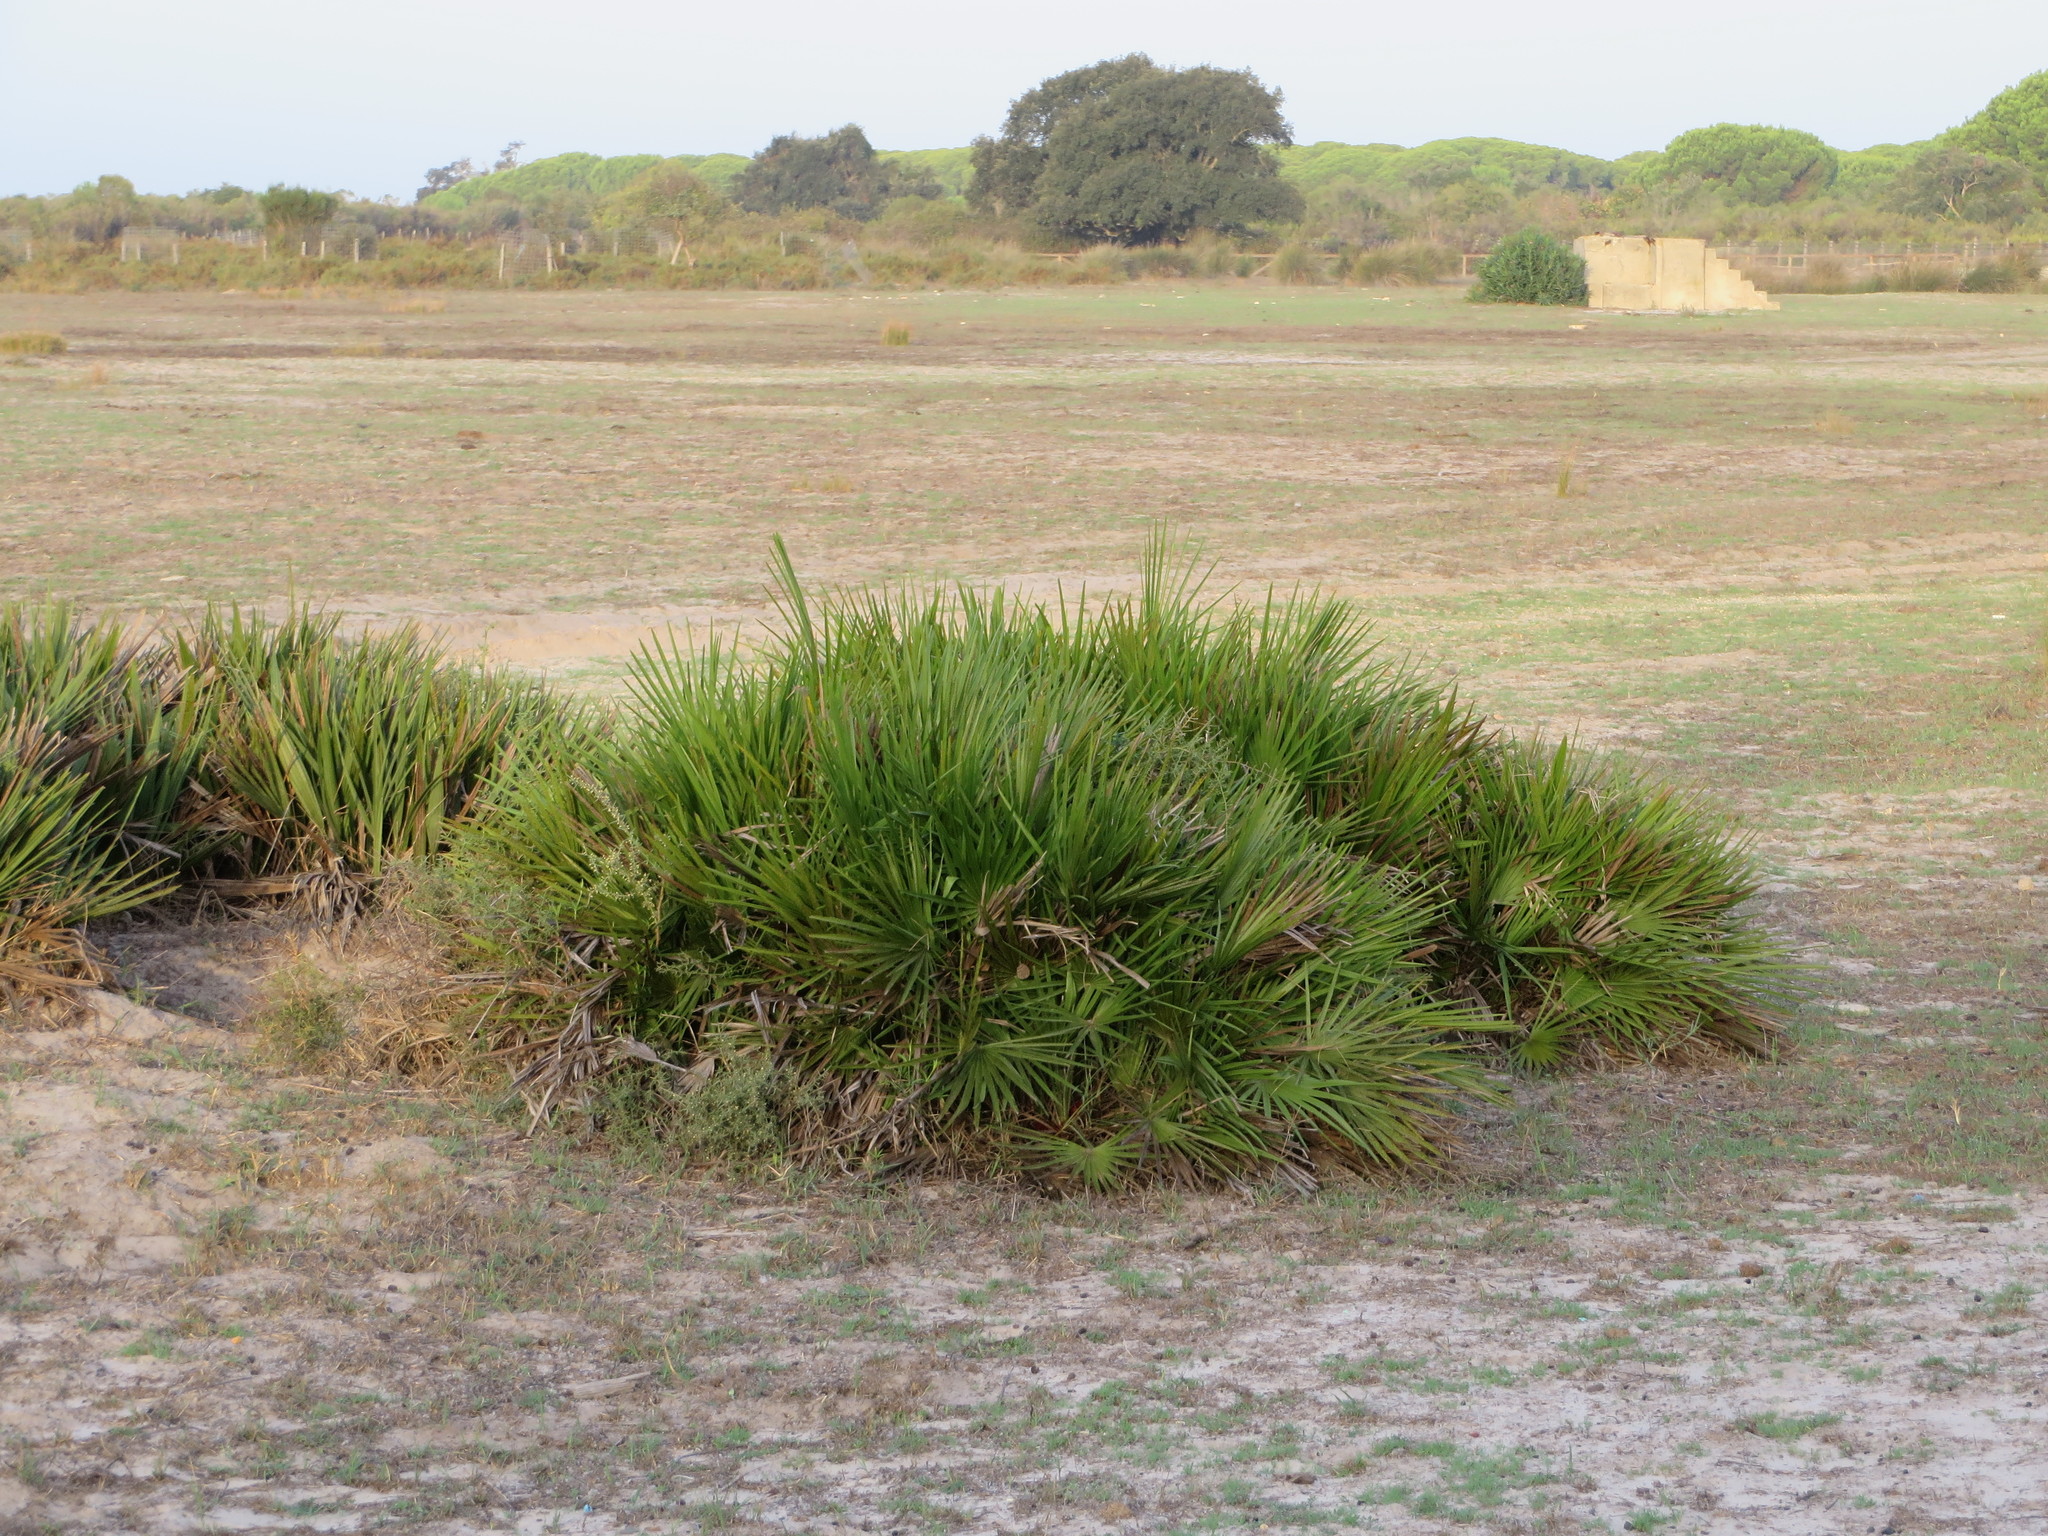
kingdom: Plantae
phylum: Tracheophyta
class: Liliopsida
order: Arecales
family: Arecaceae
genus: Chamaerops
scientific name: Chamaerops humilis
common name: Dwarf fan palm
